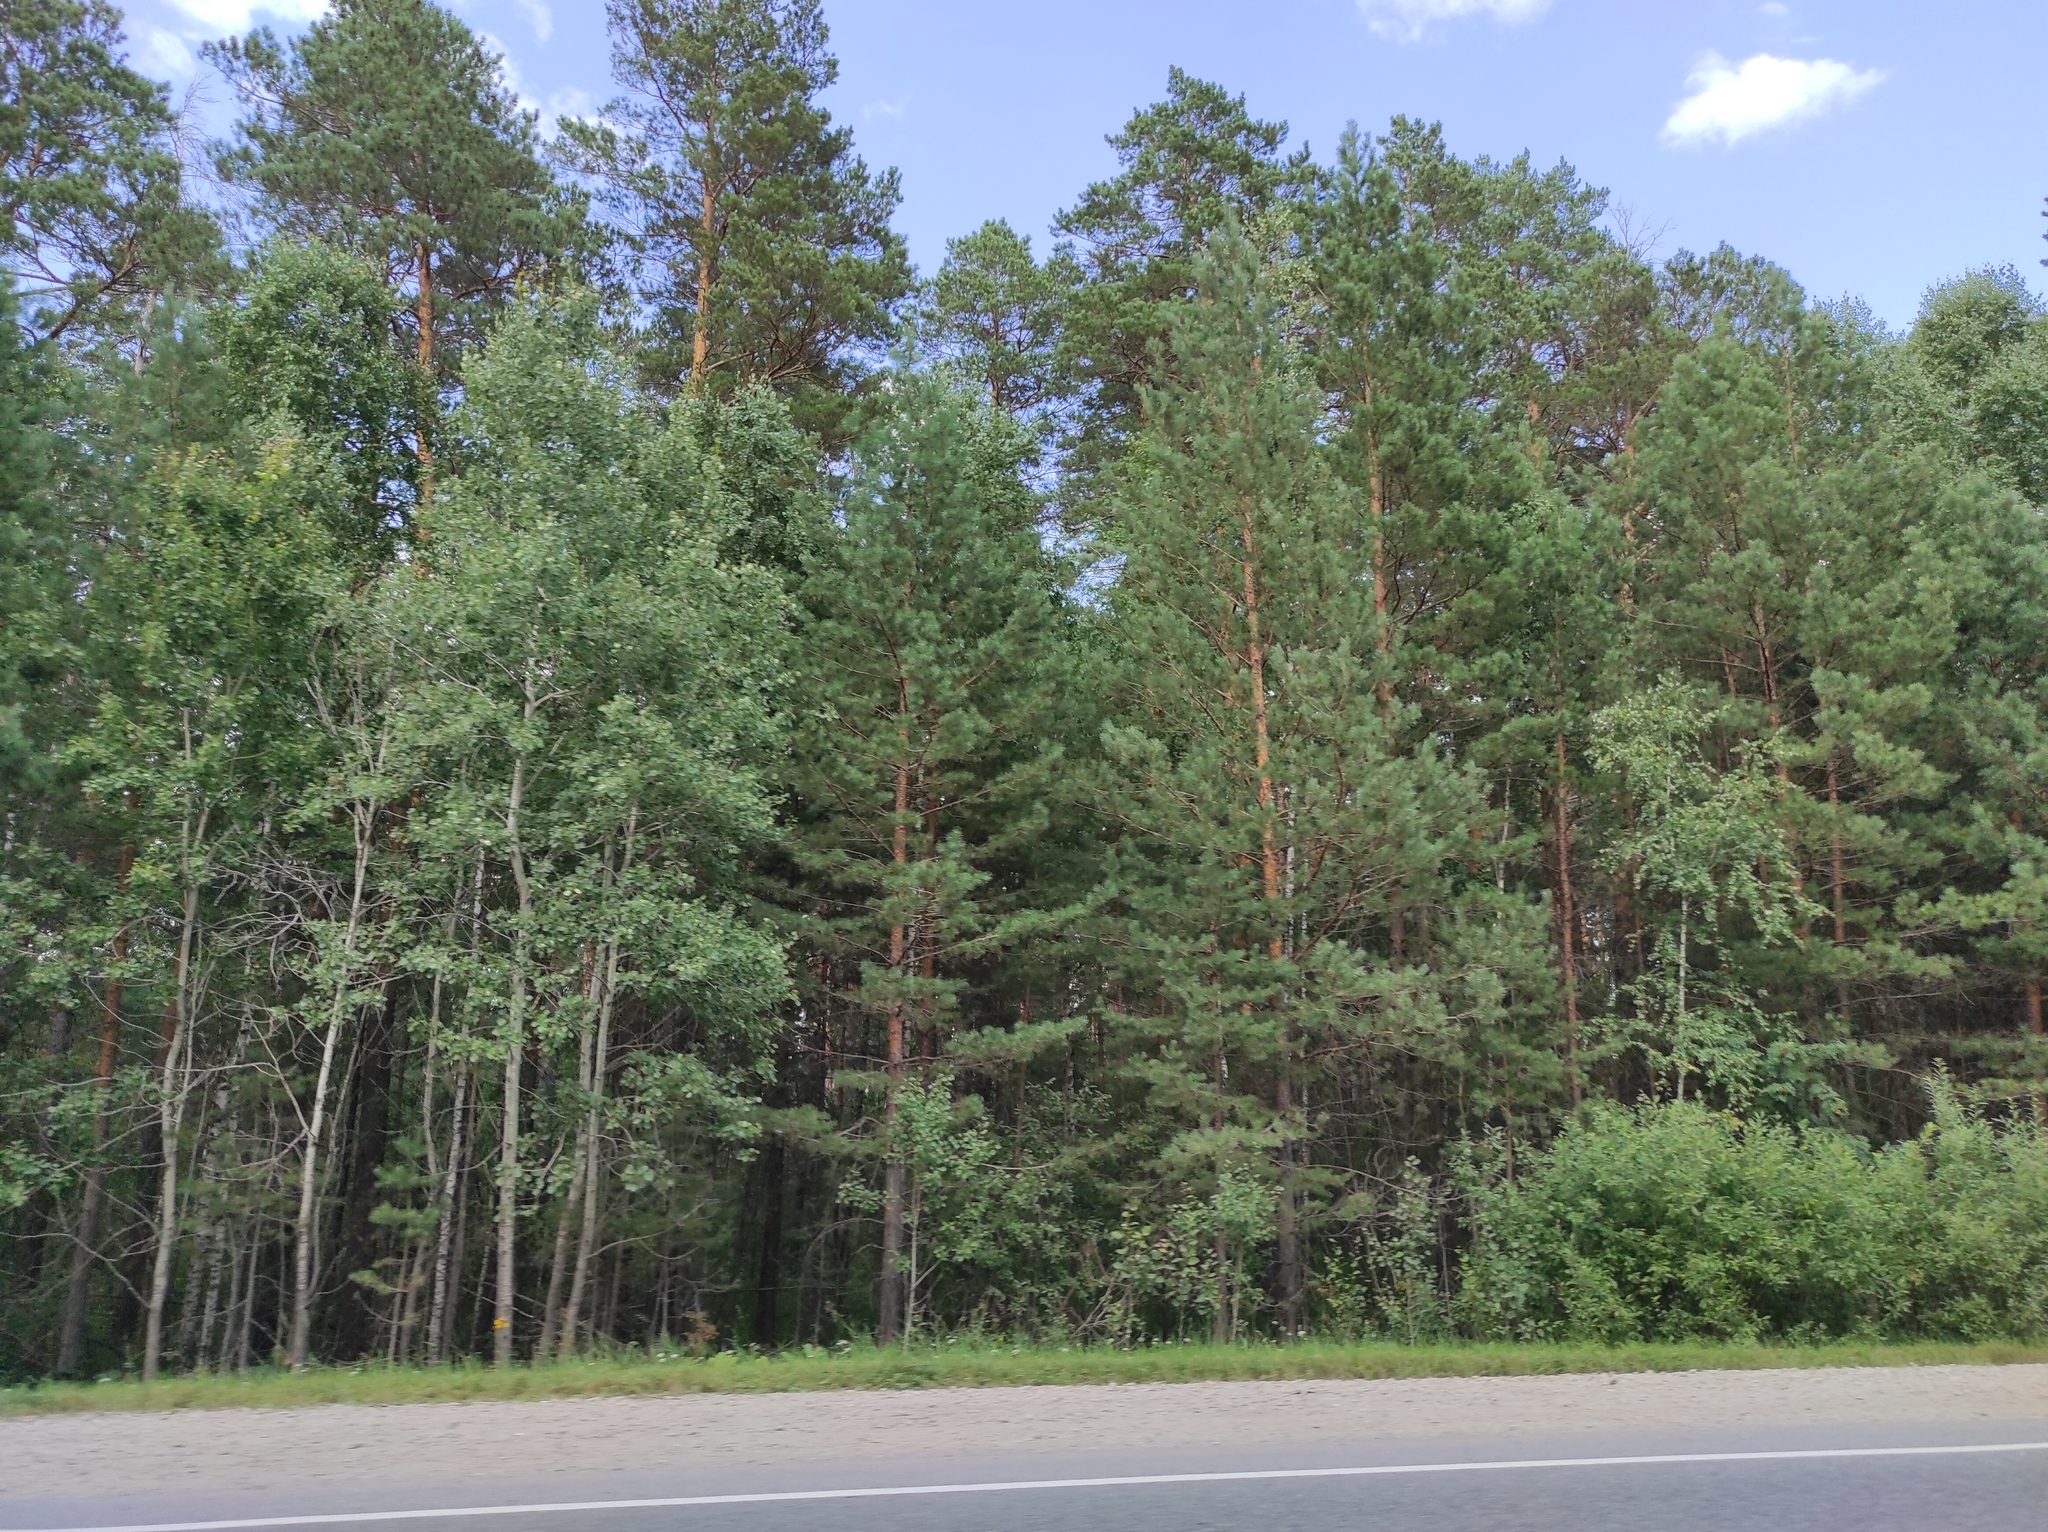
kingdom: Plantae
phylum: Tracheophyta
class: Pinopsida
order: Pinales
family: Pinaceae
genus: Pinus
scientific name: Pinus sylvestris
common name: Scots pine
